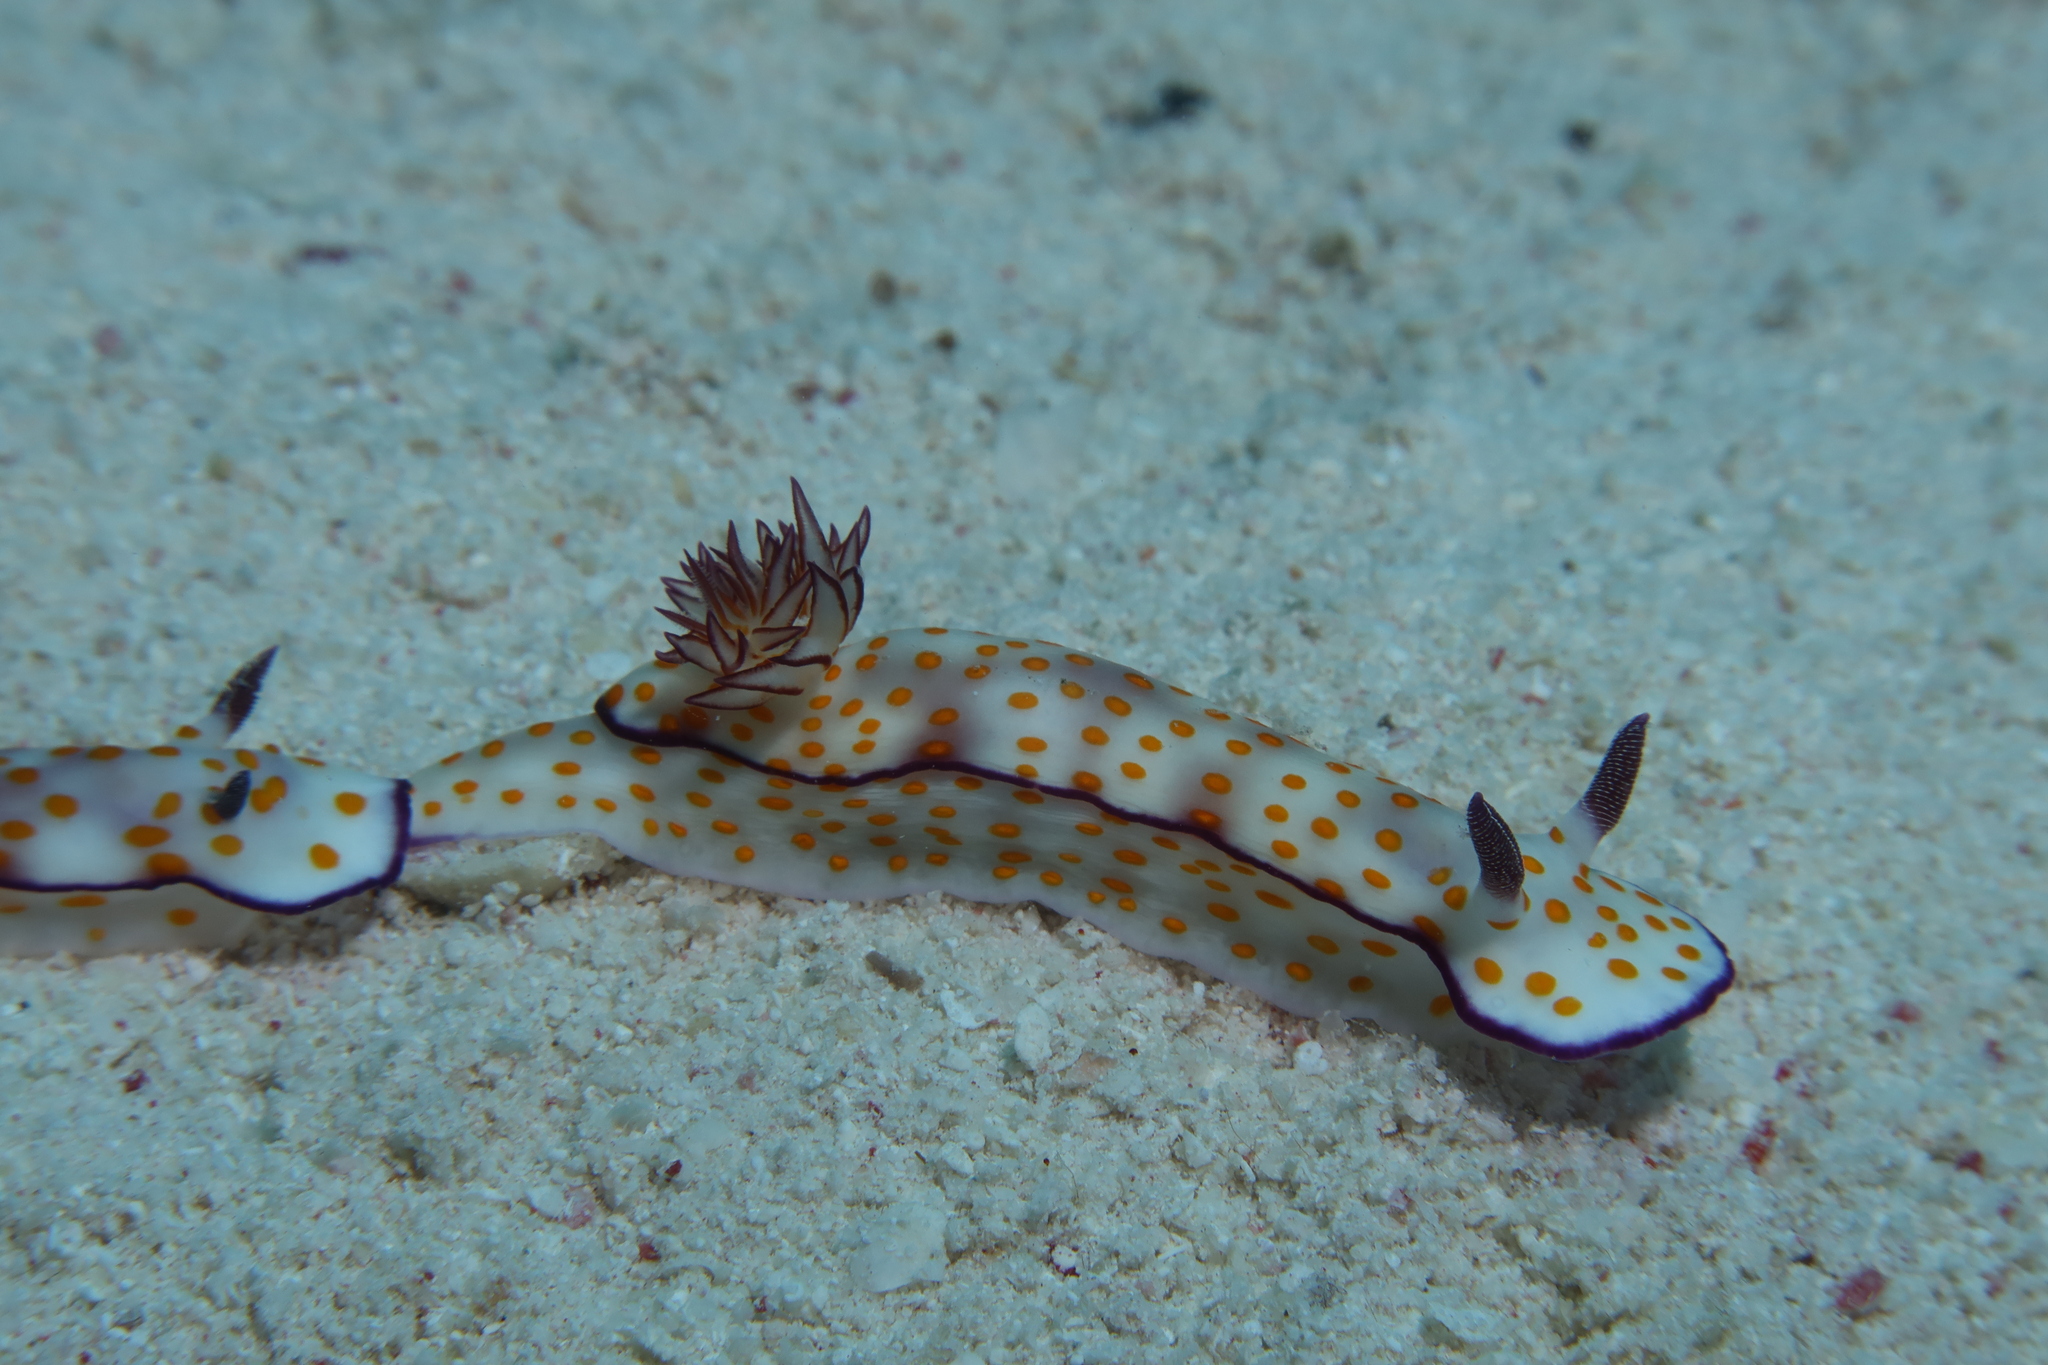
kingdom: Animalia
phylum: Mollusca
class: Gastropoda
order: Nudibranchia
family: Chromodorididae
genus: Hypselodoris
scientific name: Hypselodoris pulchella
